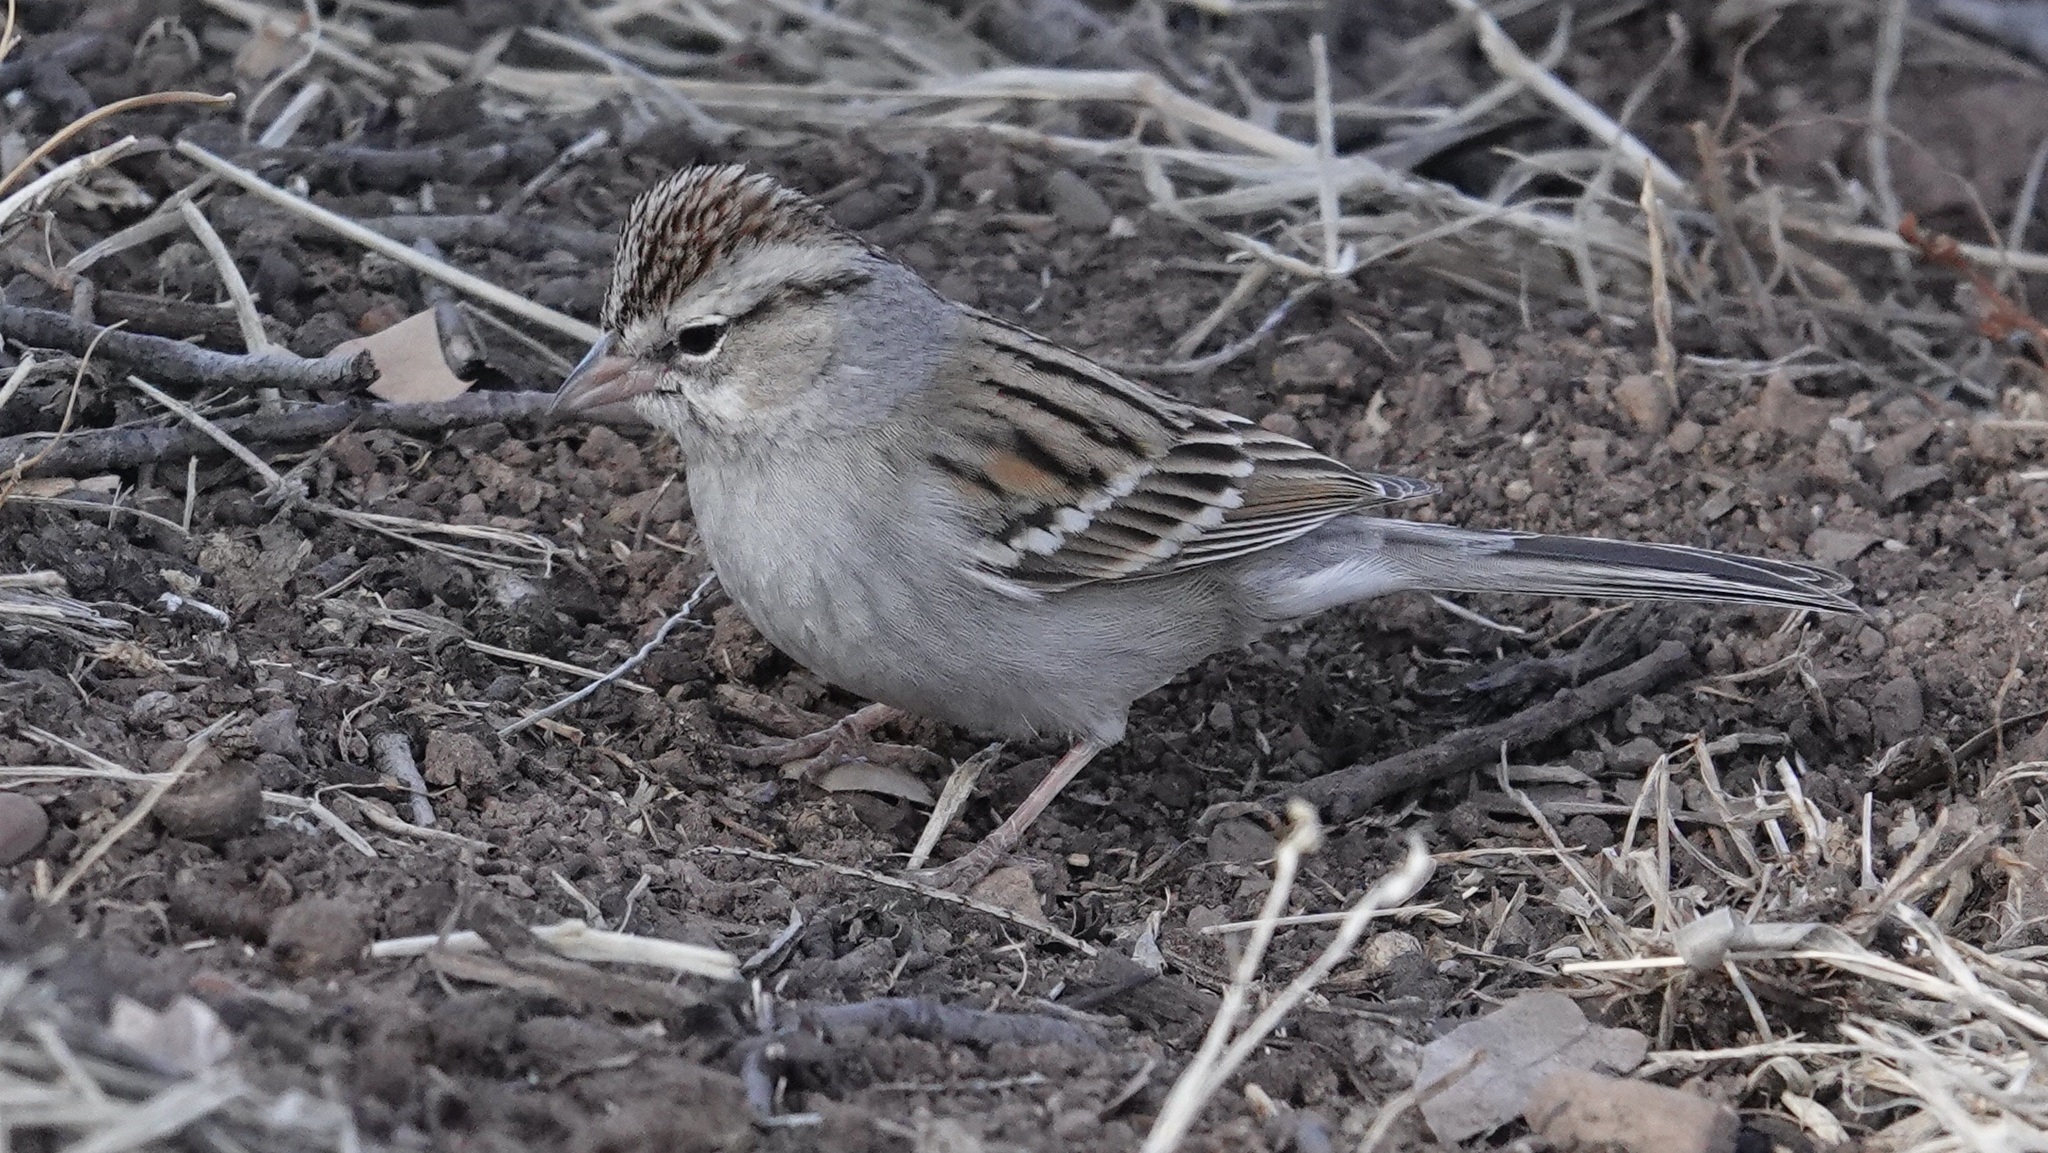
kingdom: Animalia
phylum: Chordata
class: Aves
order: Passeriformes
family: Passerellidae
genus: Spizella
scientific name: Spizella passerina
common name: Chipping sparrow
